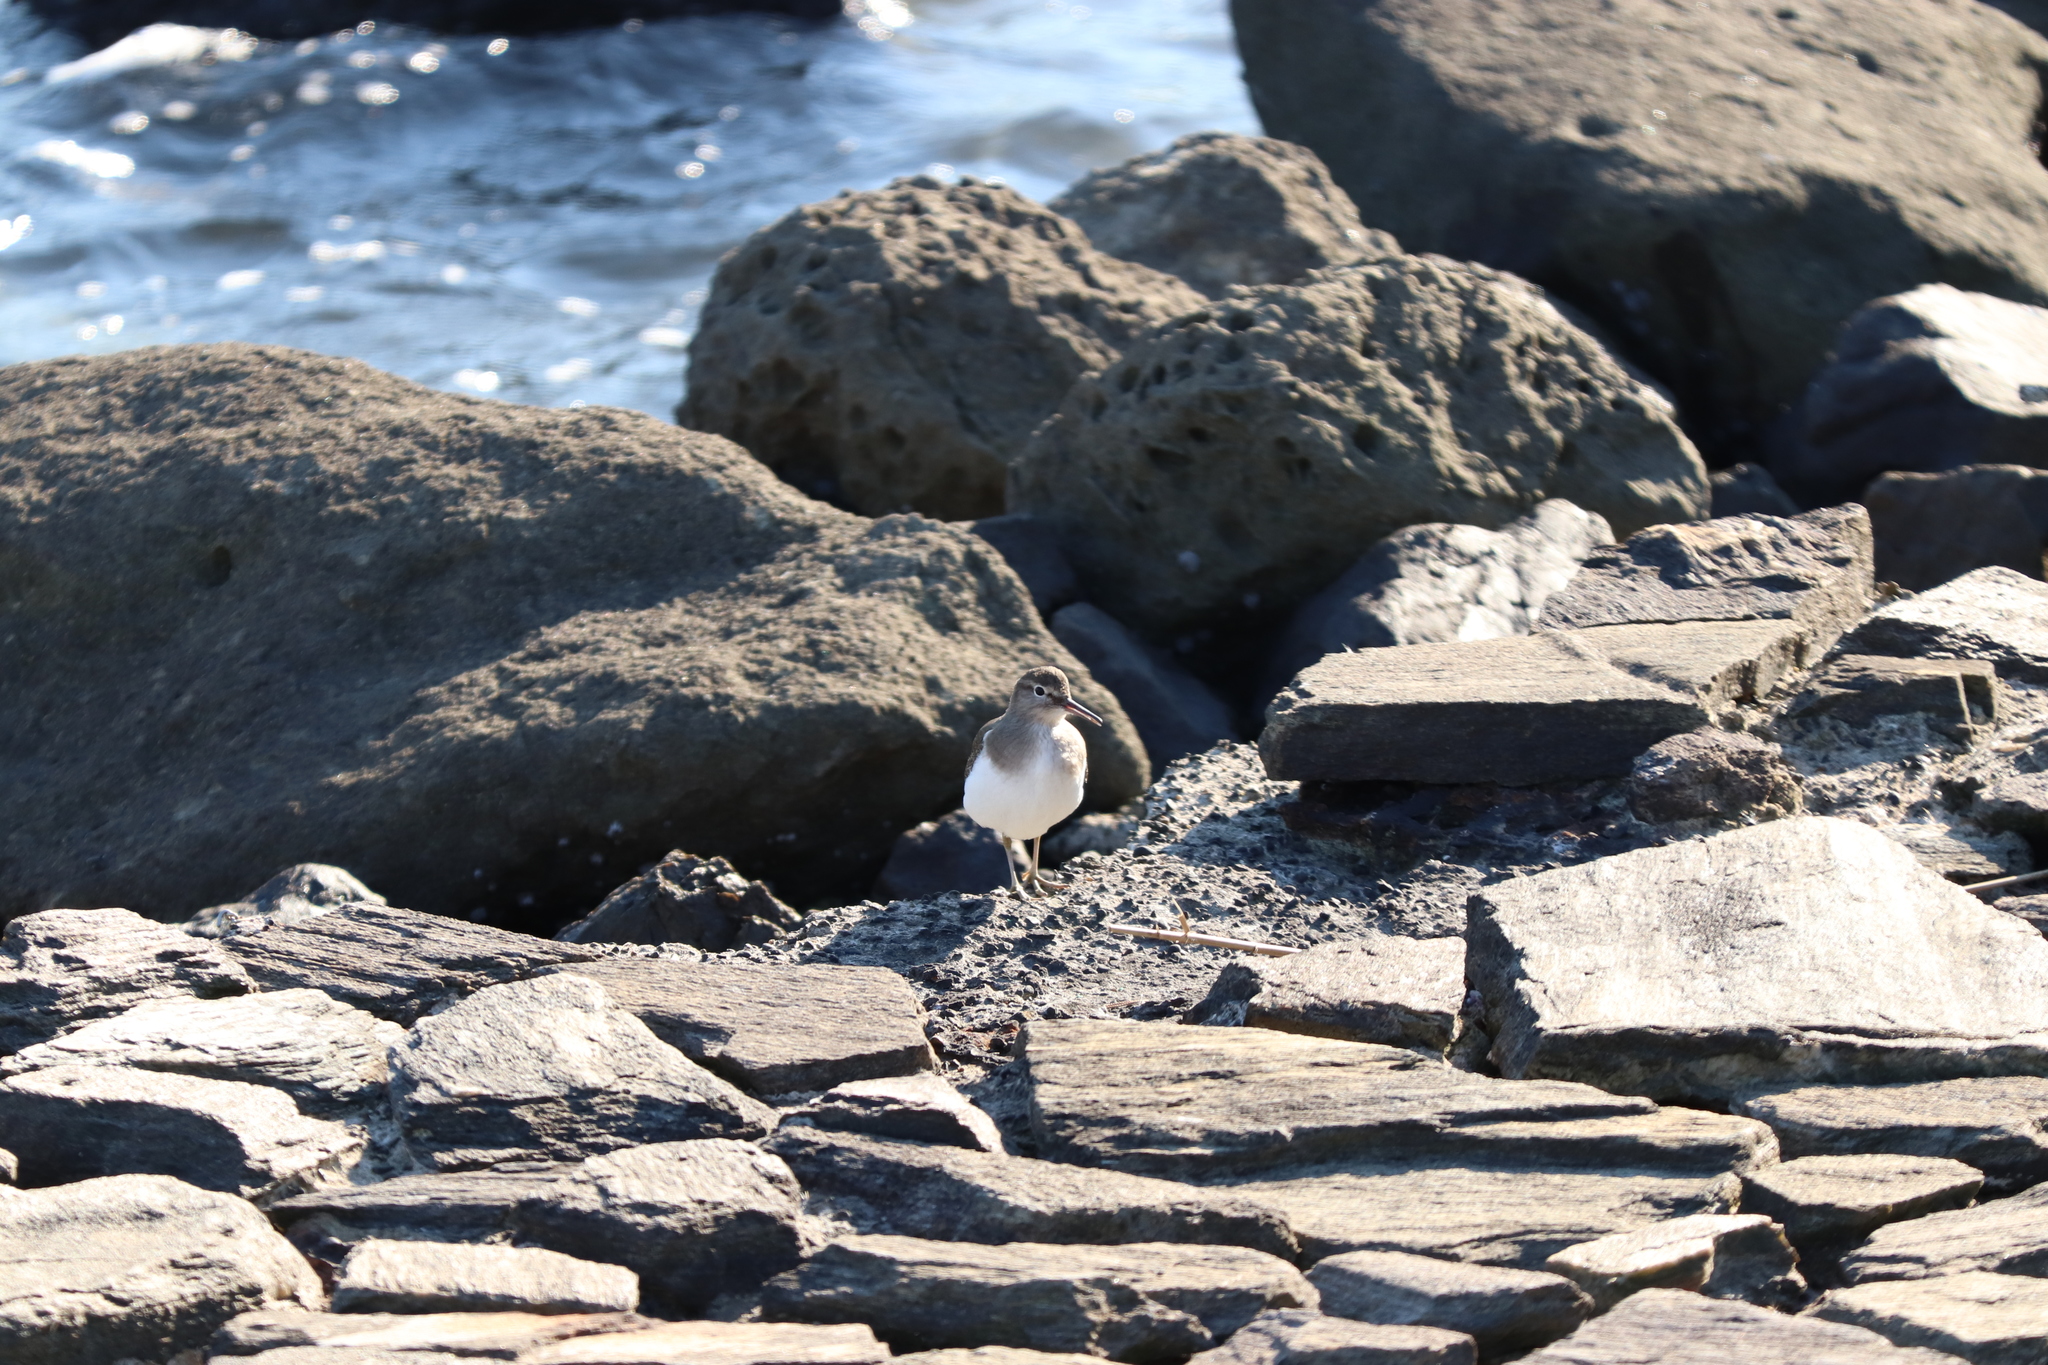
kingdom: Animalia
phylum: Chordata
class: Aves
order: Charadriiformes
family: Scolopacidae
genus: Actitis
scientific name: Actitis hypoleucos
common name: Common sandpiper
